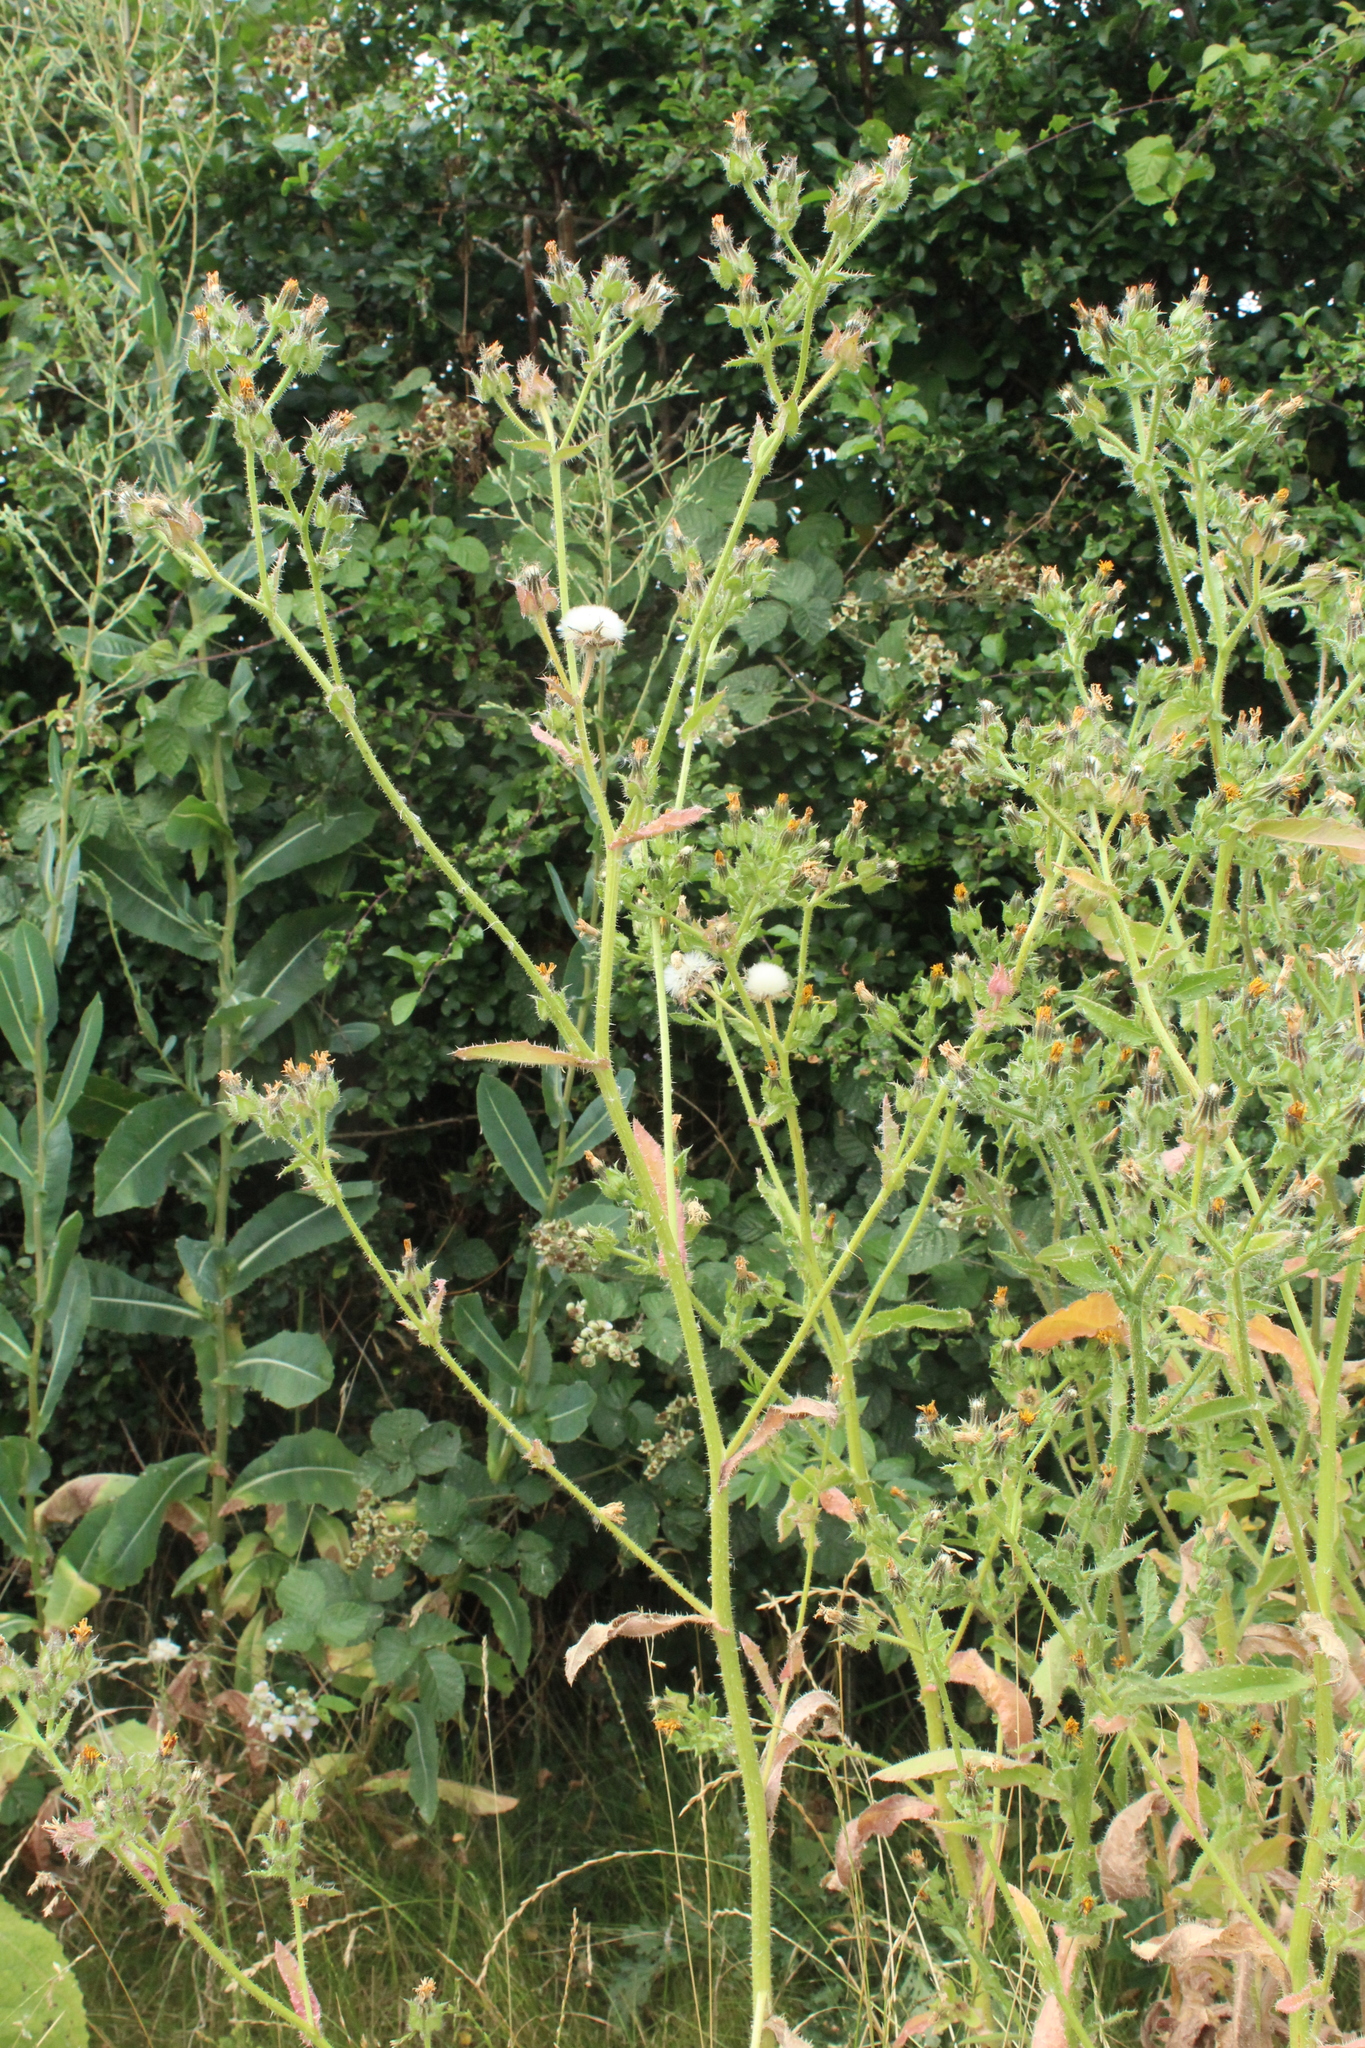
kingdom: Plantae
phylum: Tracheophyta
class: Magnoliopsida
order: Asterales
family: Asteraceae
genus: Helminthotheca
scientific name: Helminthotheca echioides
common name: Ox-tongue
